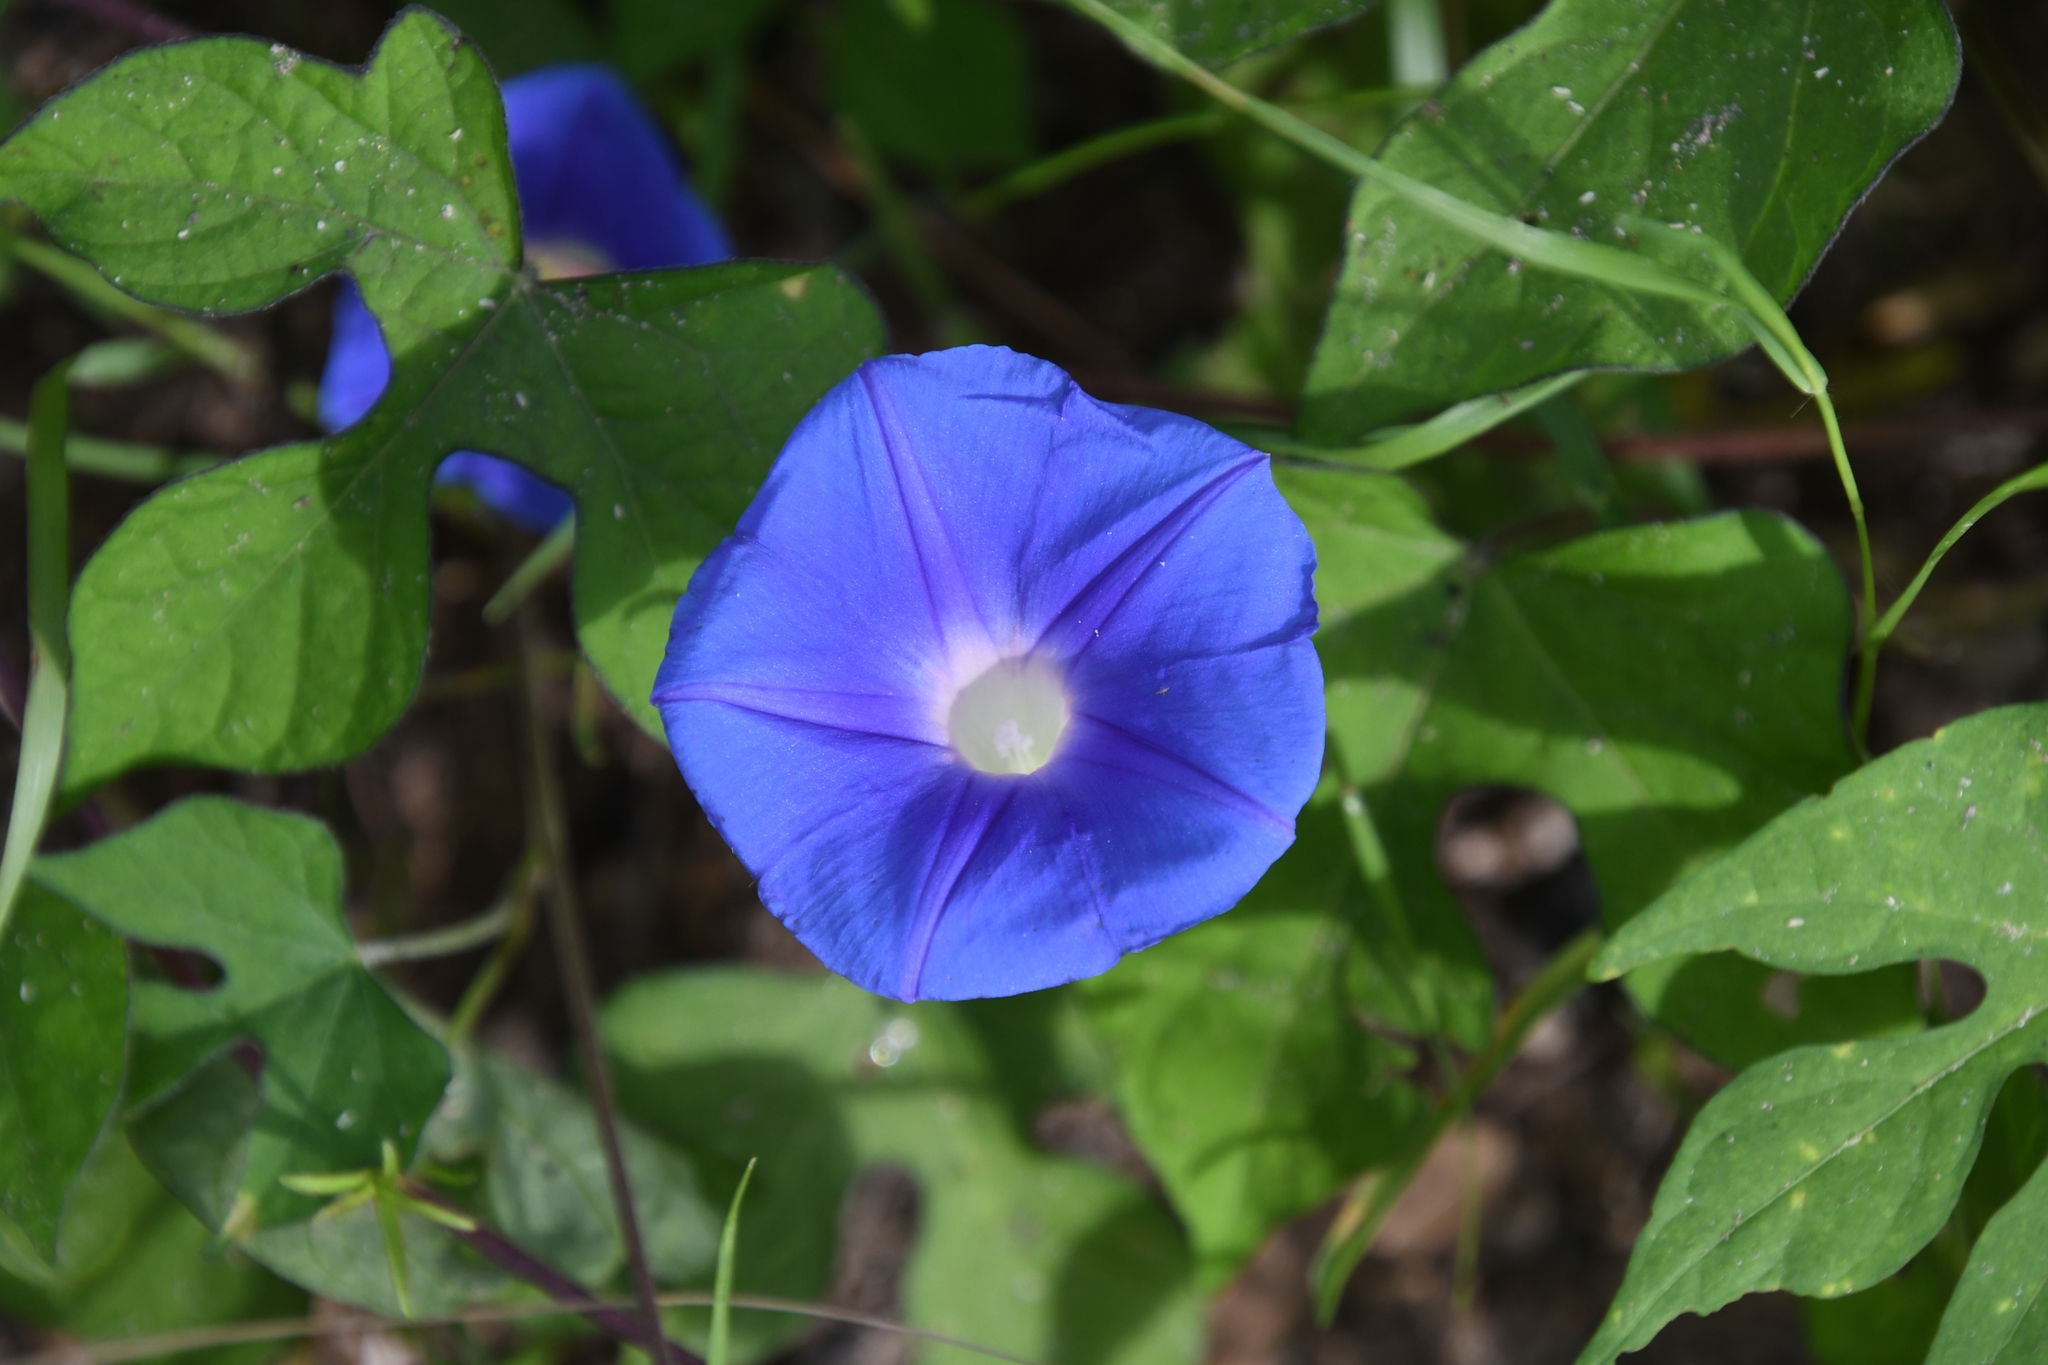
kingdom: Plantae
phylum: Tracheophyta
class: Magnoliopsida
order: Solanales
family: Convolvulaceae
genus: Ipomoea
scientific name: Ipomoea hederacea
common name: Ivy-leaved morning-glory
